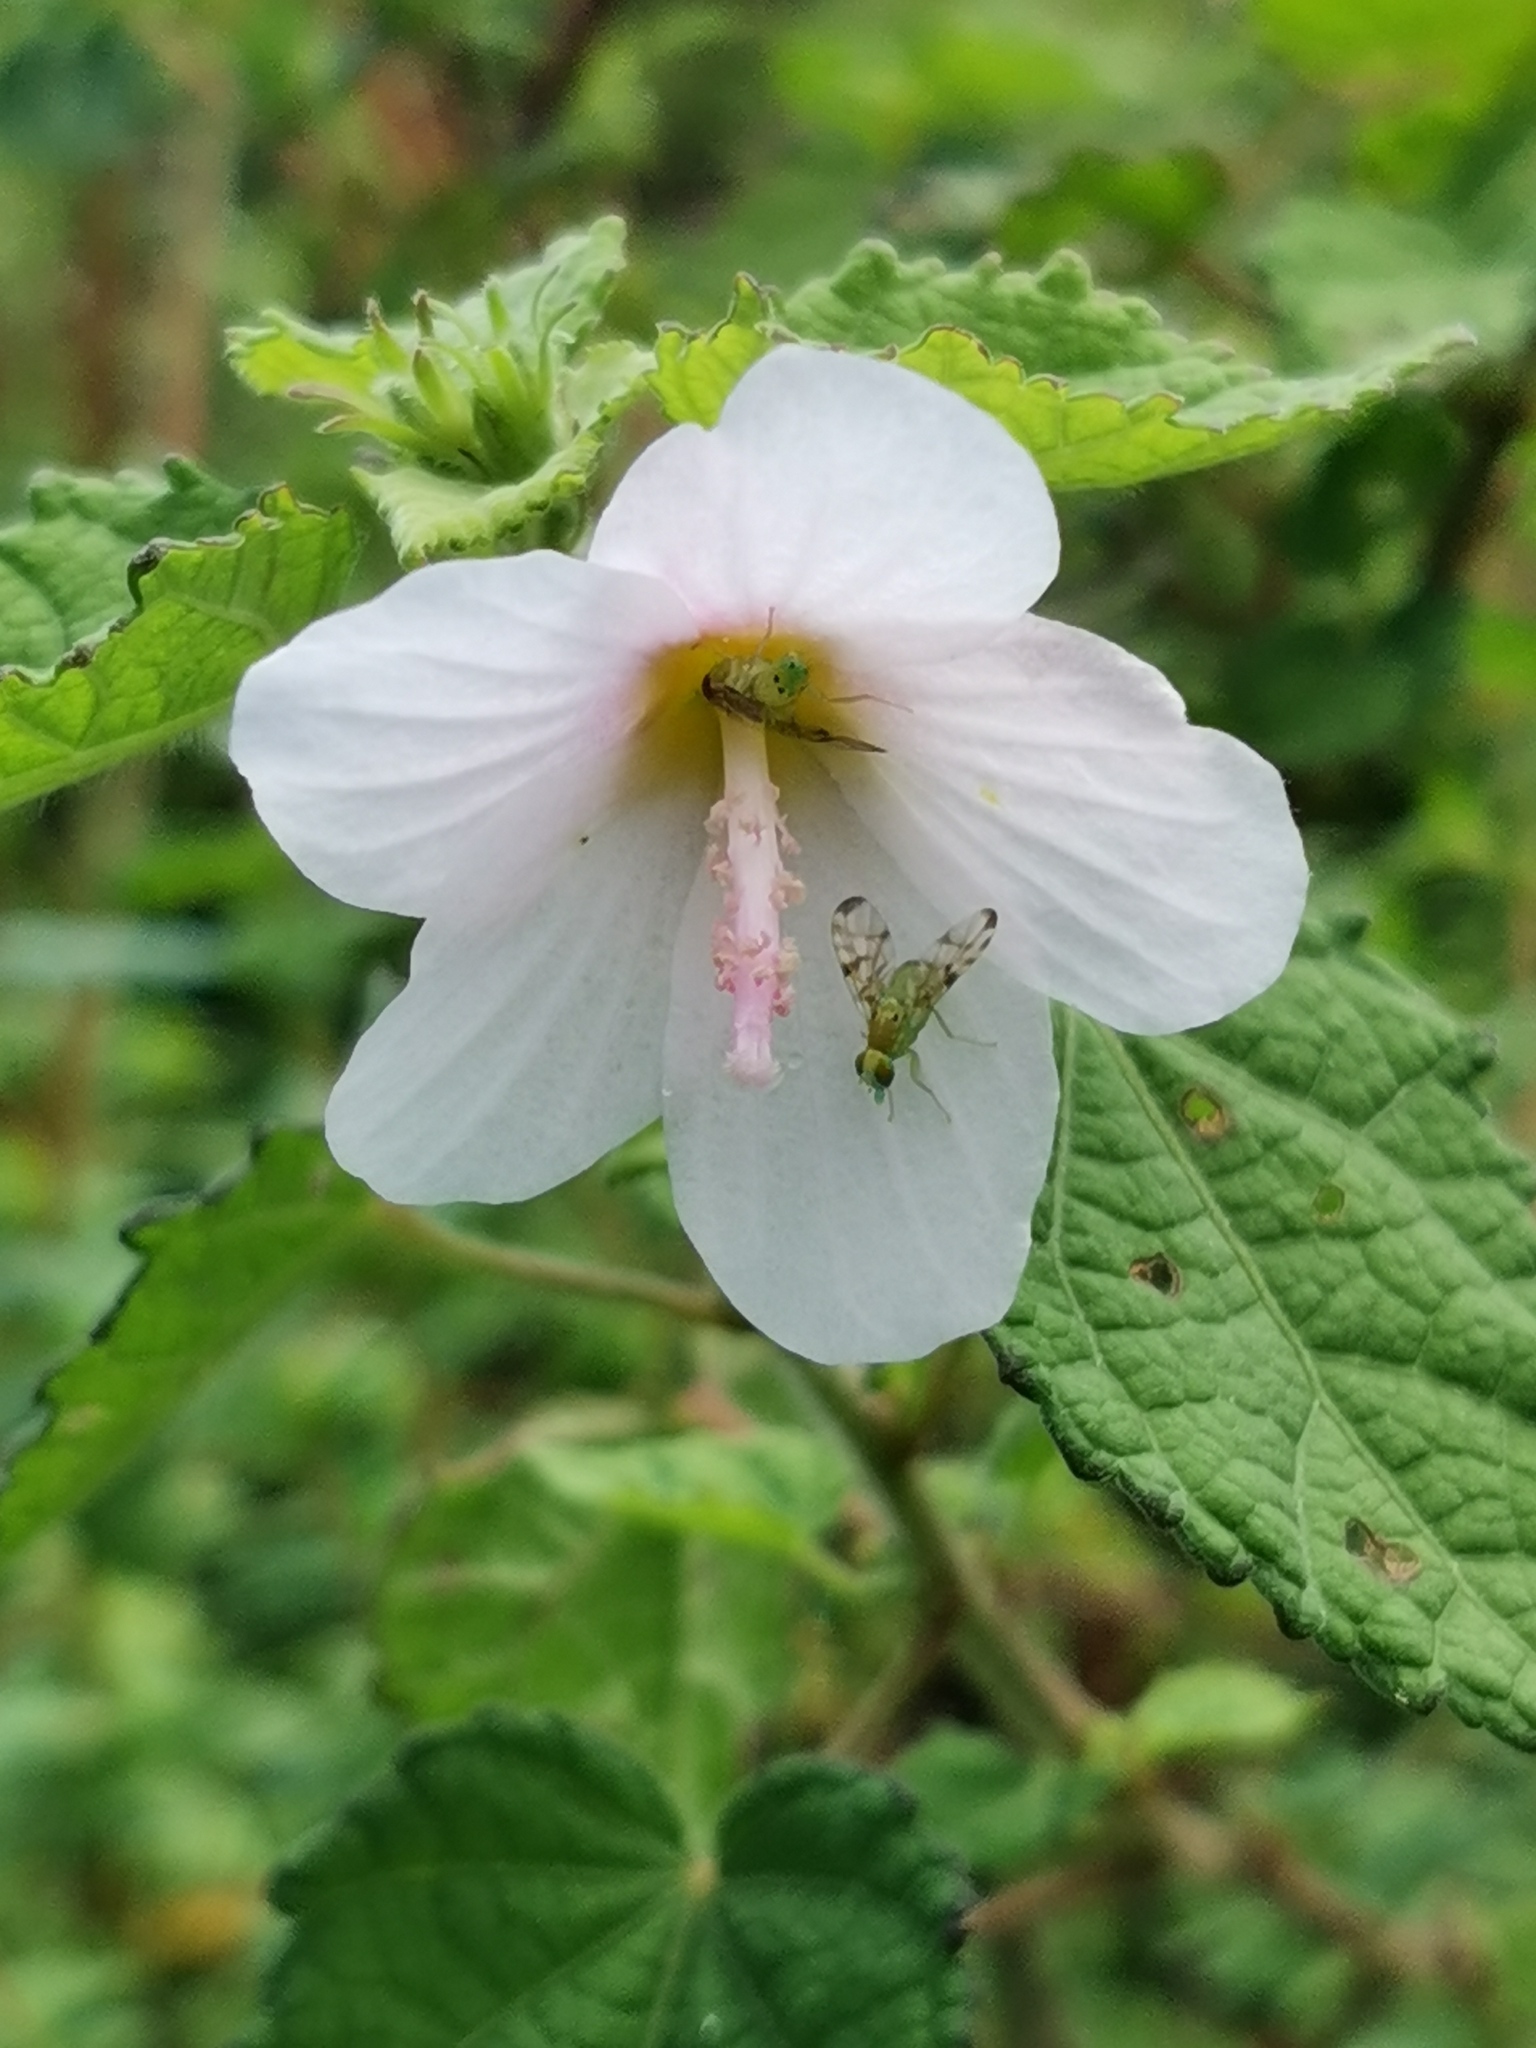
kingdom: Plantae
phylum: Tracheophyta
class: Magnoliopsida
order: Malvales
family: Malvaceae
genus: Pavonia
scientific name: Pavonia columella
